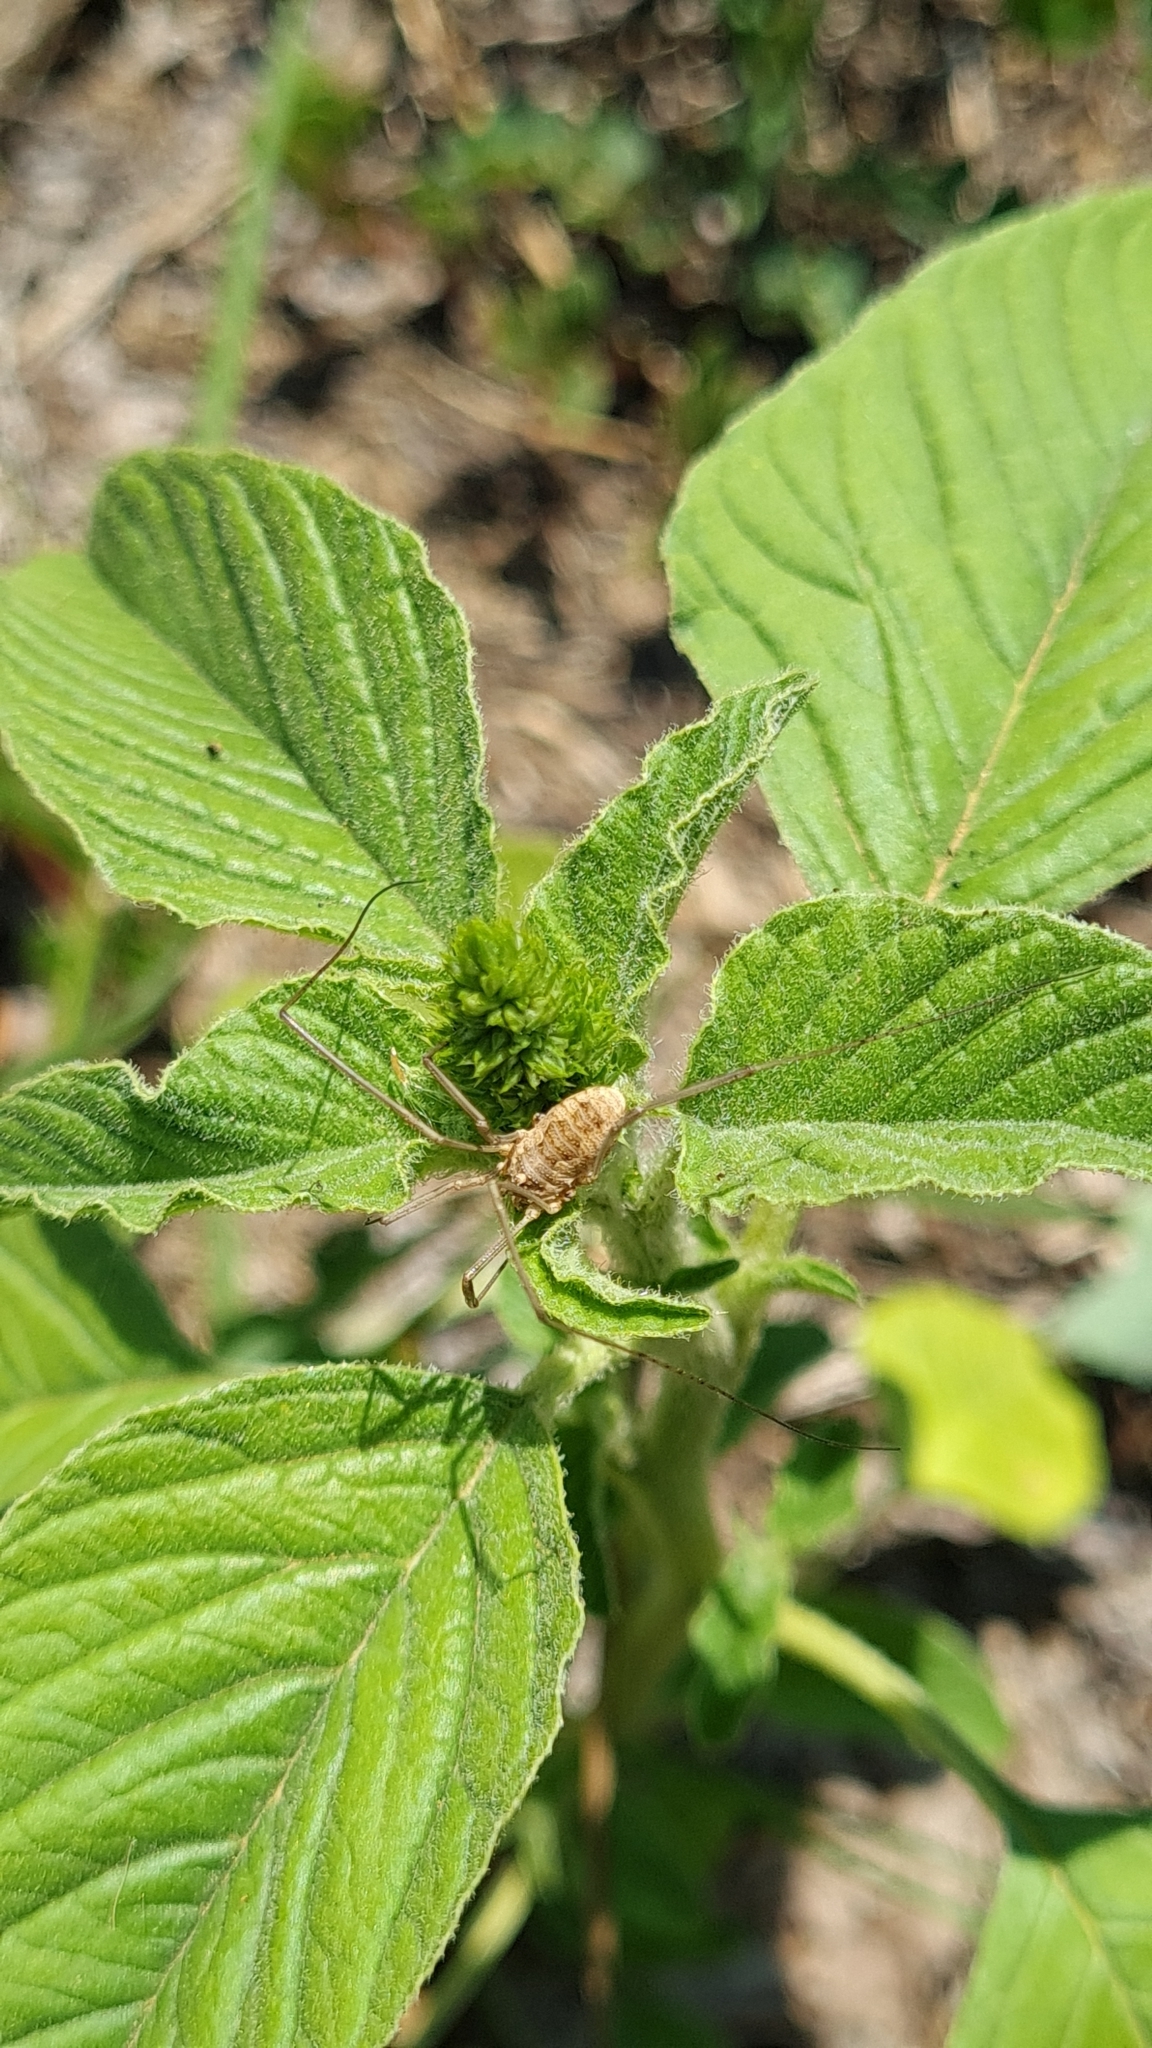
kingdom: Animalia
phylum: Arthropoda
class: Arachnida
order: Opiliones
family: Phalangiidae
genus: Phalangium
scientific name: Phalangium opilio
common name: Daddy longleg
